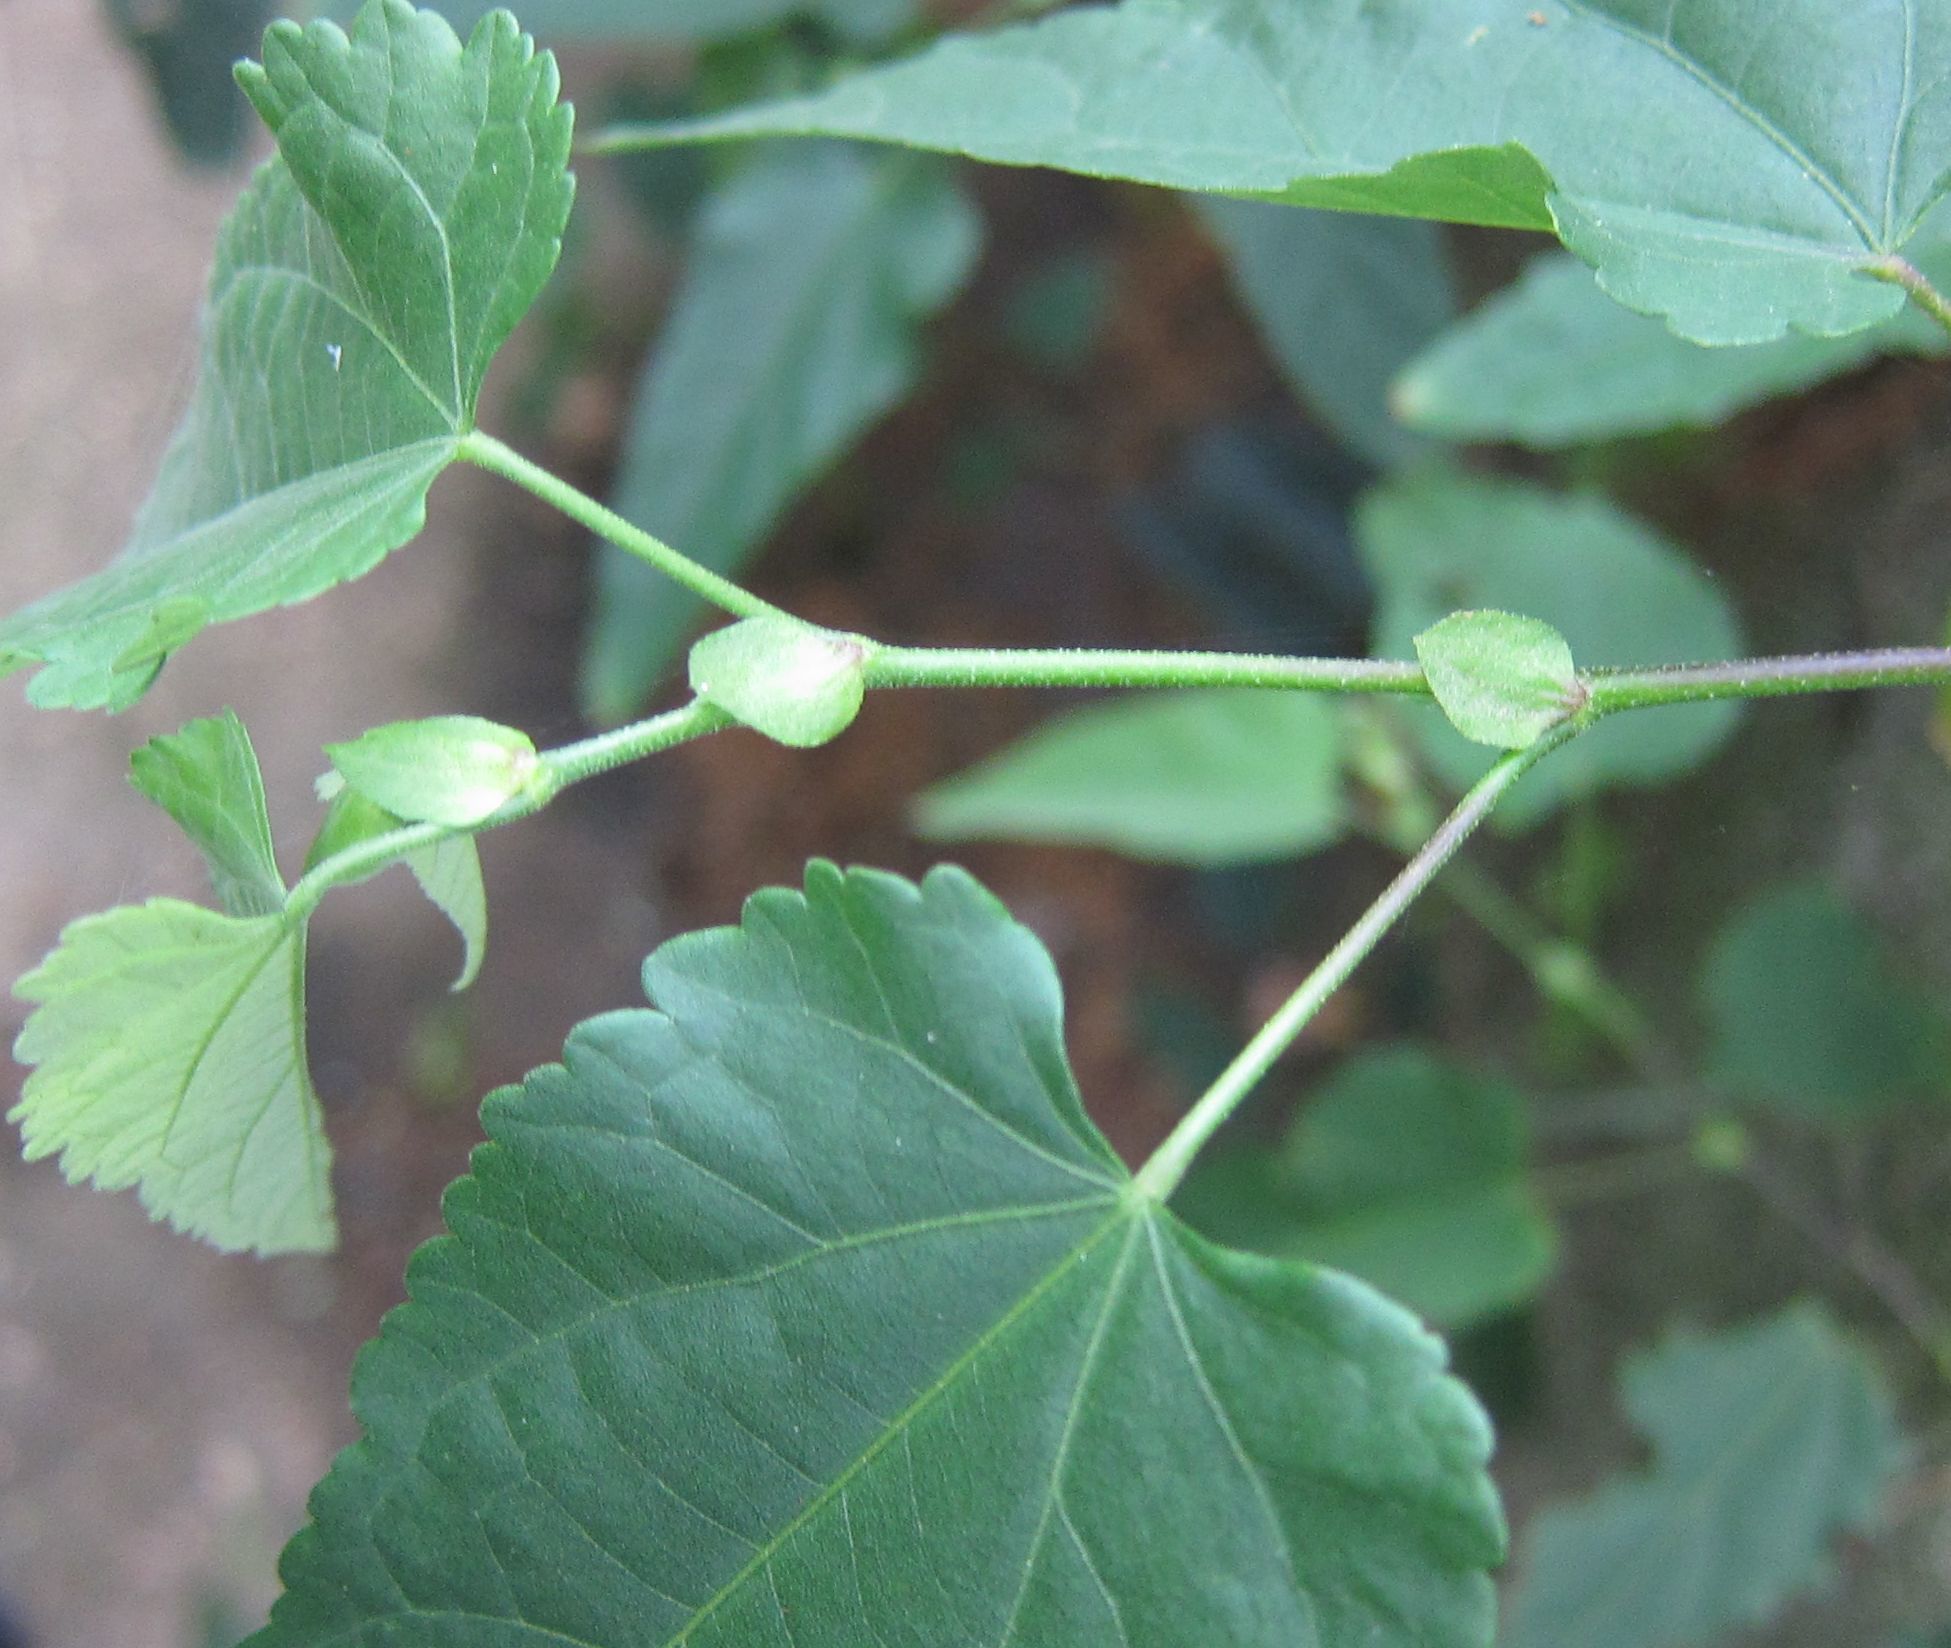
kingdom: Plantae
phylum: Tracheophyta
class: Magnoliopsida
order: Malvales
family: Malvaceae
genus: Callianthe
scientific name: Callianthe megapotamica
